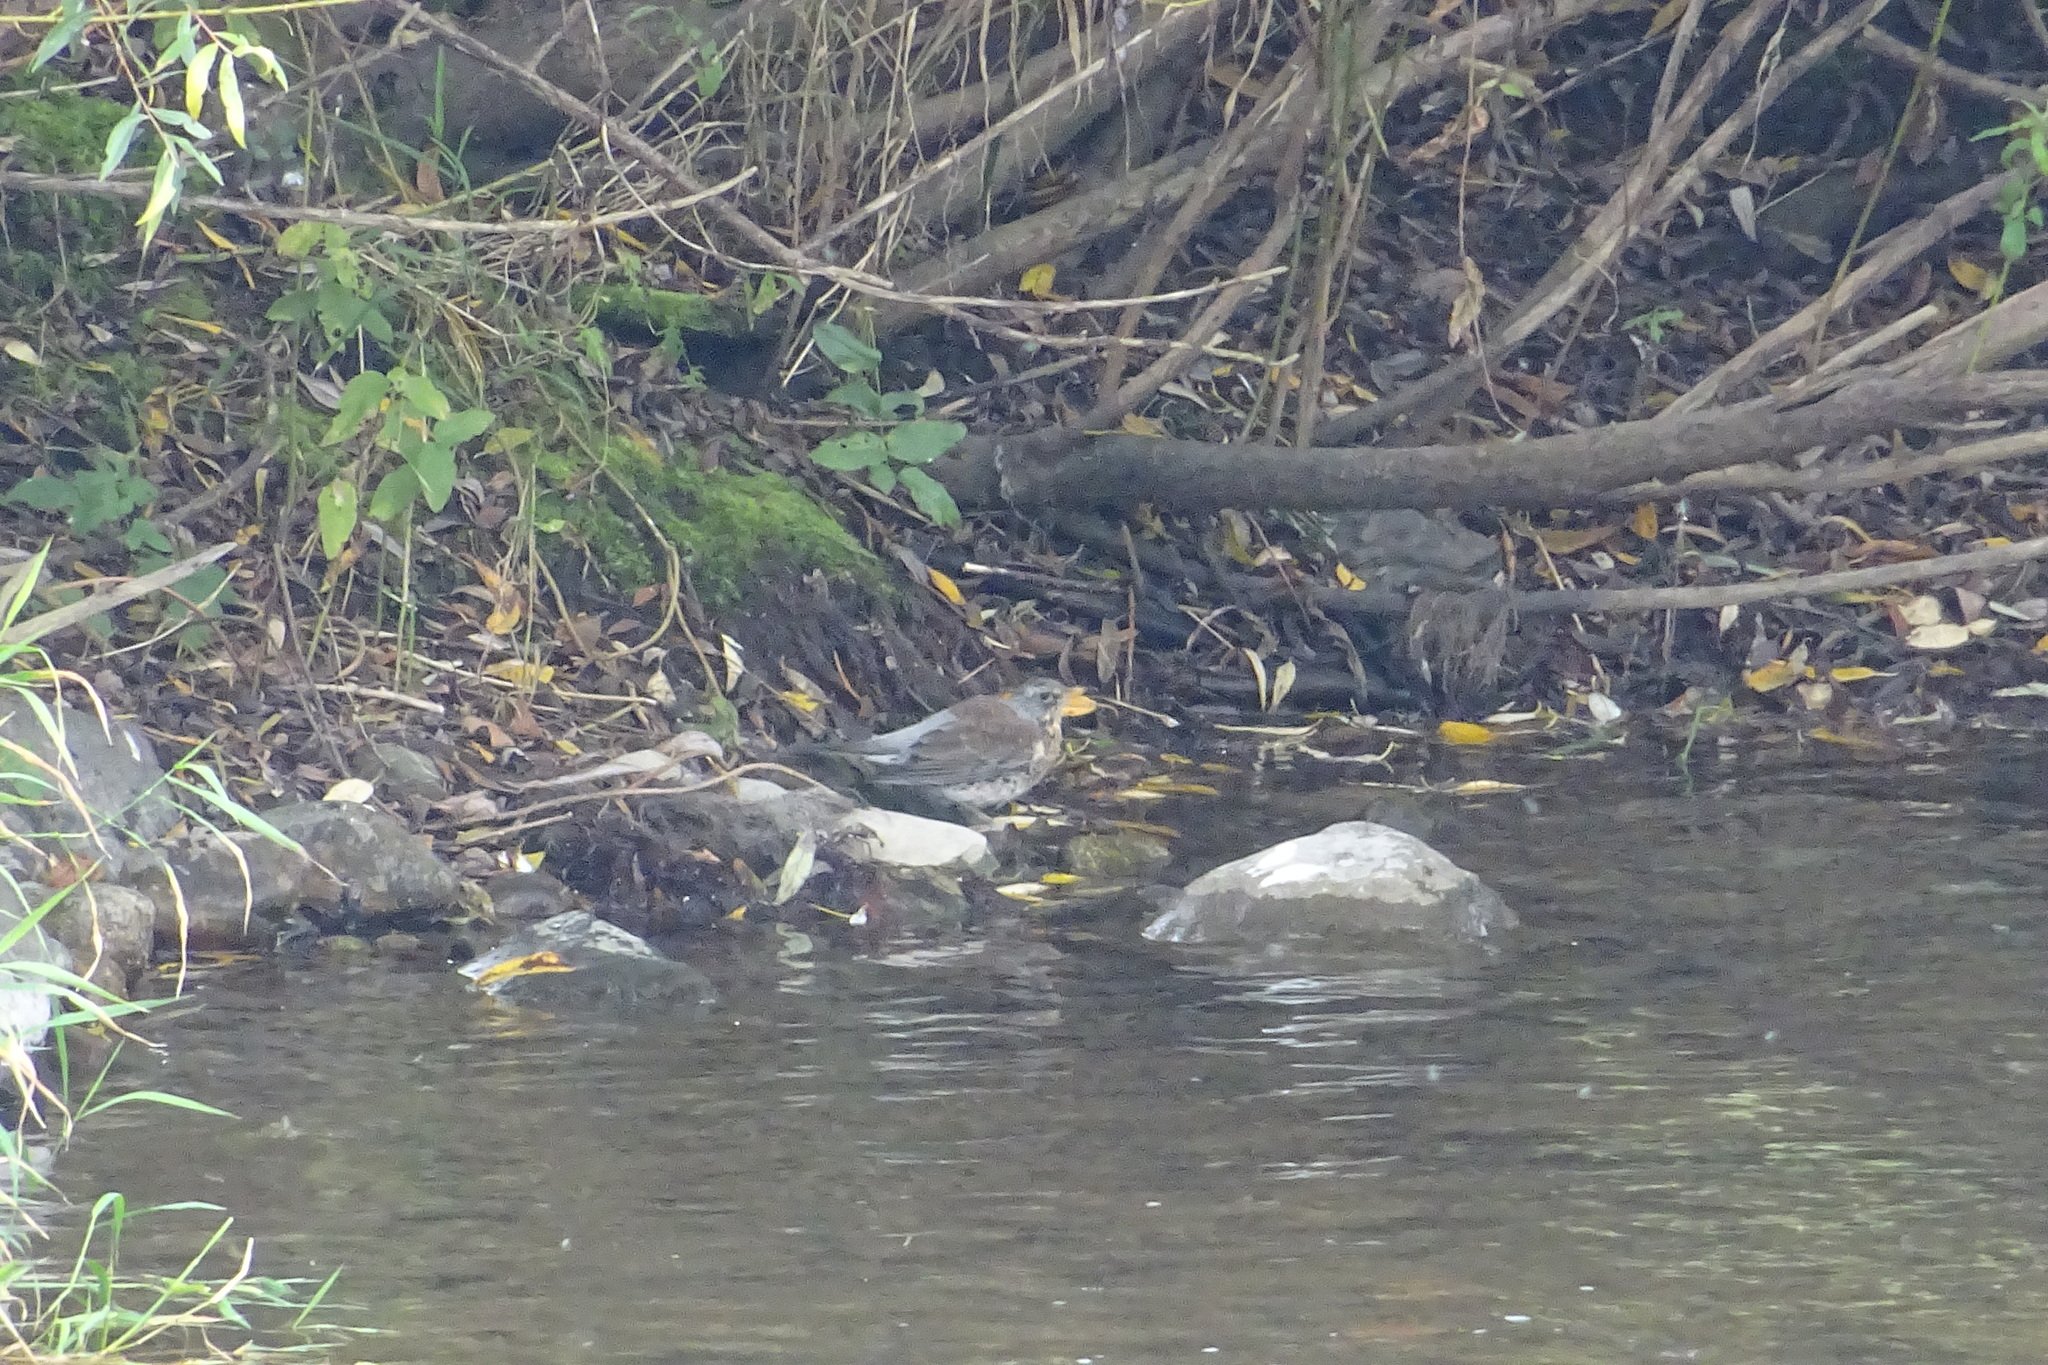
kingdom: Animalia
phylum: Chordata
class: Aves
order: Passeriformes
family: Turdidae
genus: Turdus
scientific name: Turdus pilaris
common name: Fieldfare
